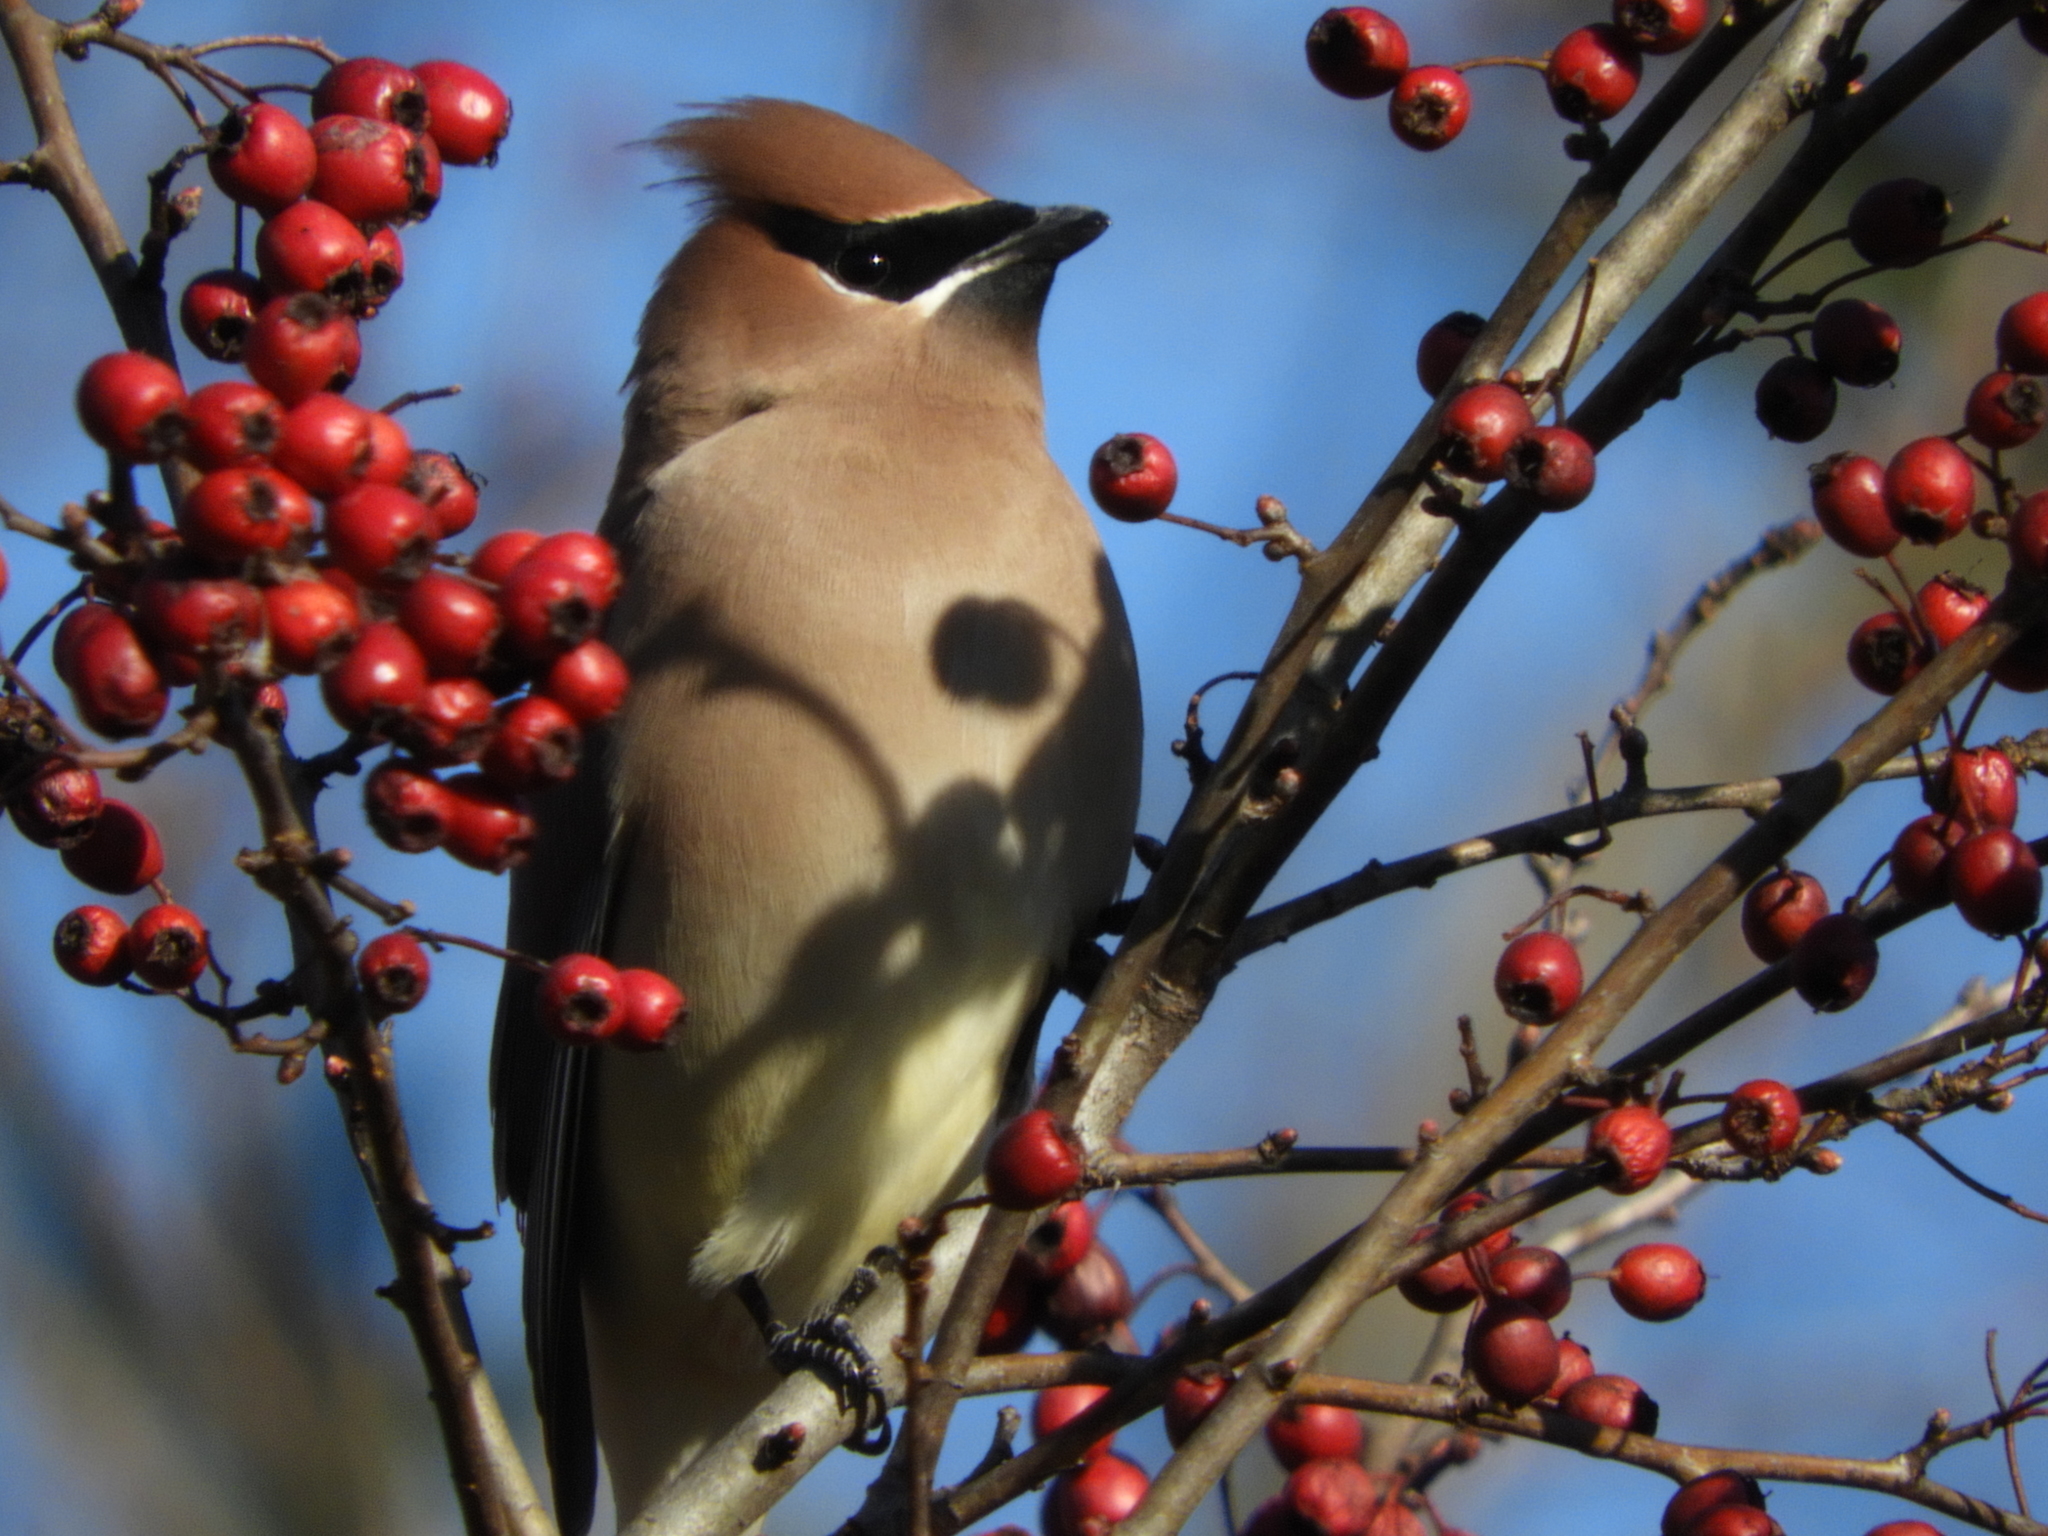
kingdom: Animalia
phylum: Chordata
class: Aves
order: Passeriformes
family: Bombycillidae
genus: Bombycilla
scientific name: Bombycilla cedrorum
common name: Cedar waxwing
